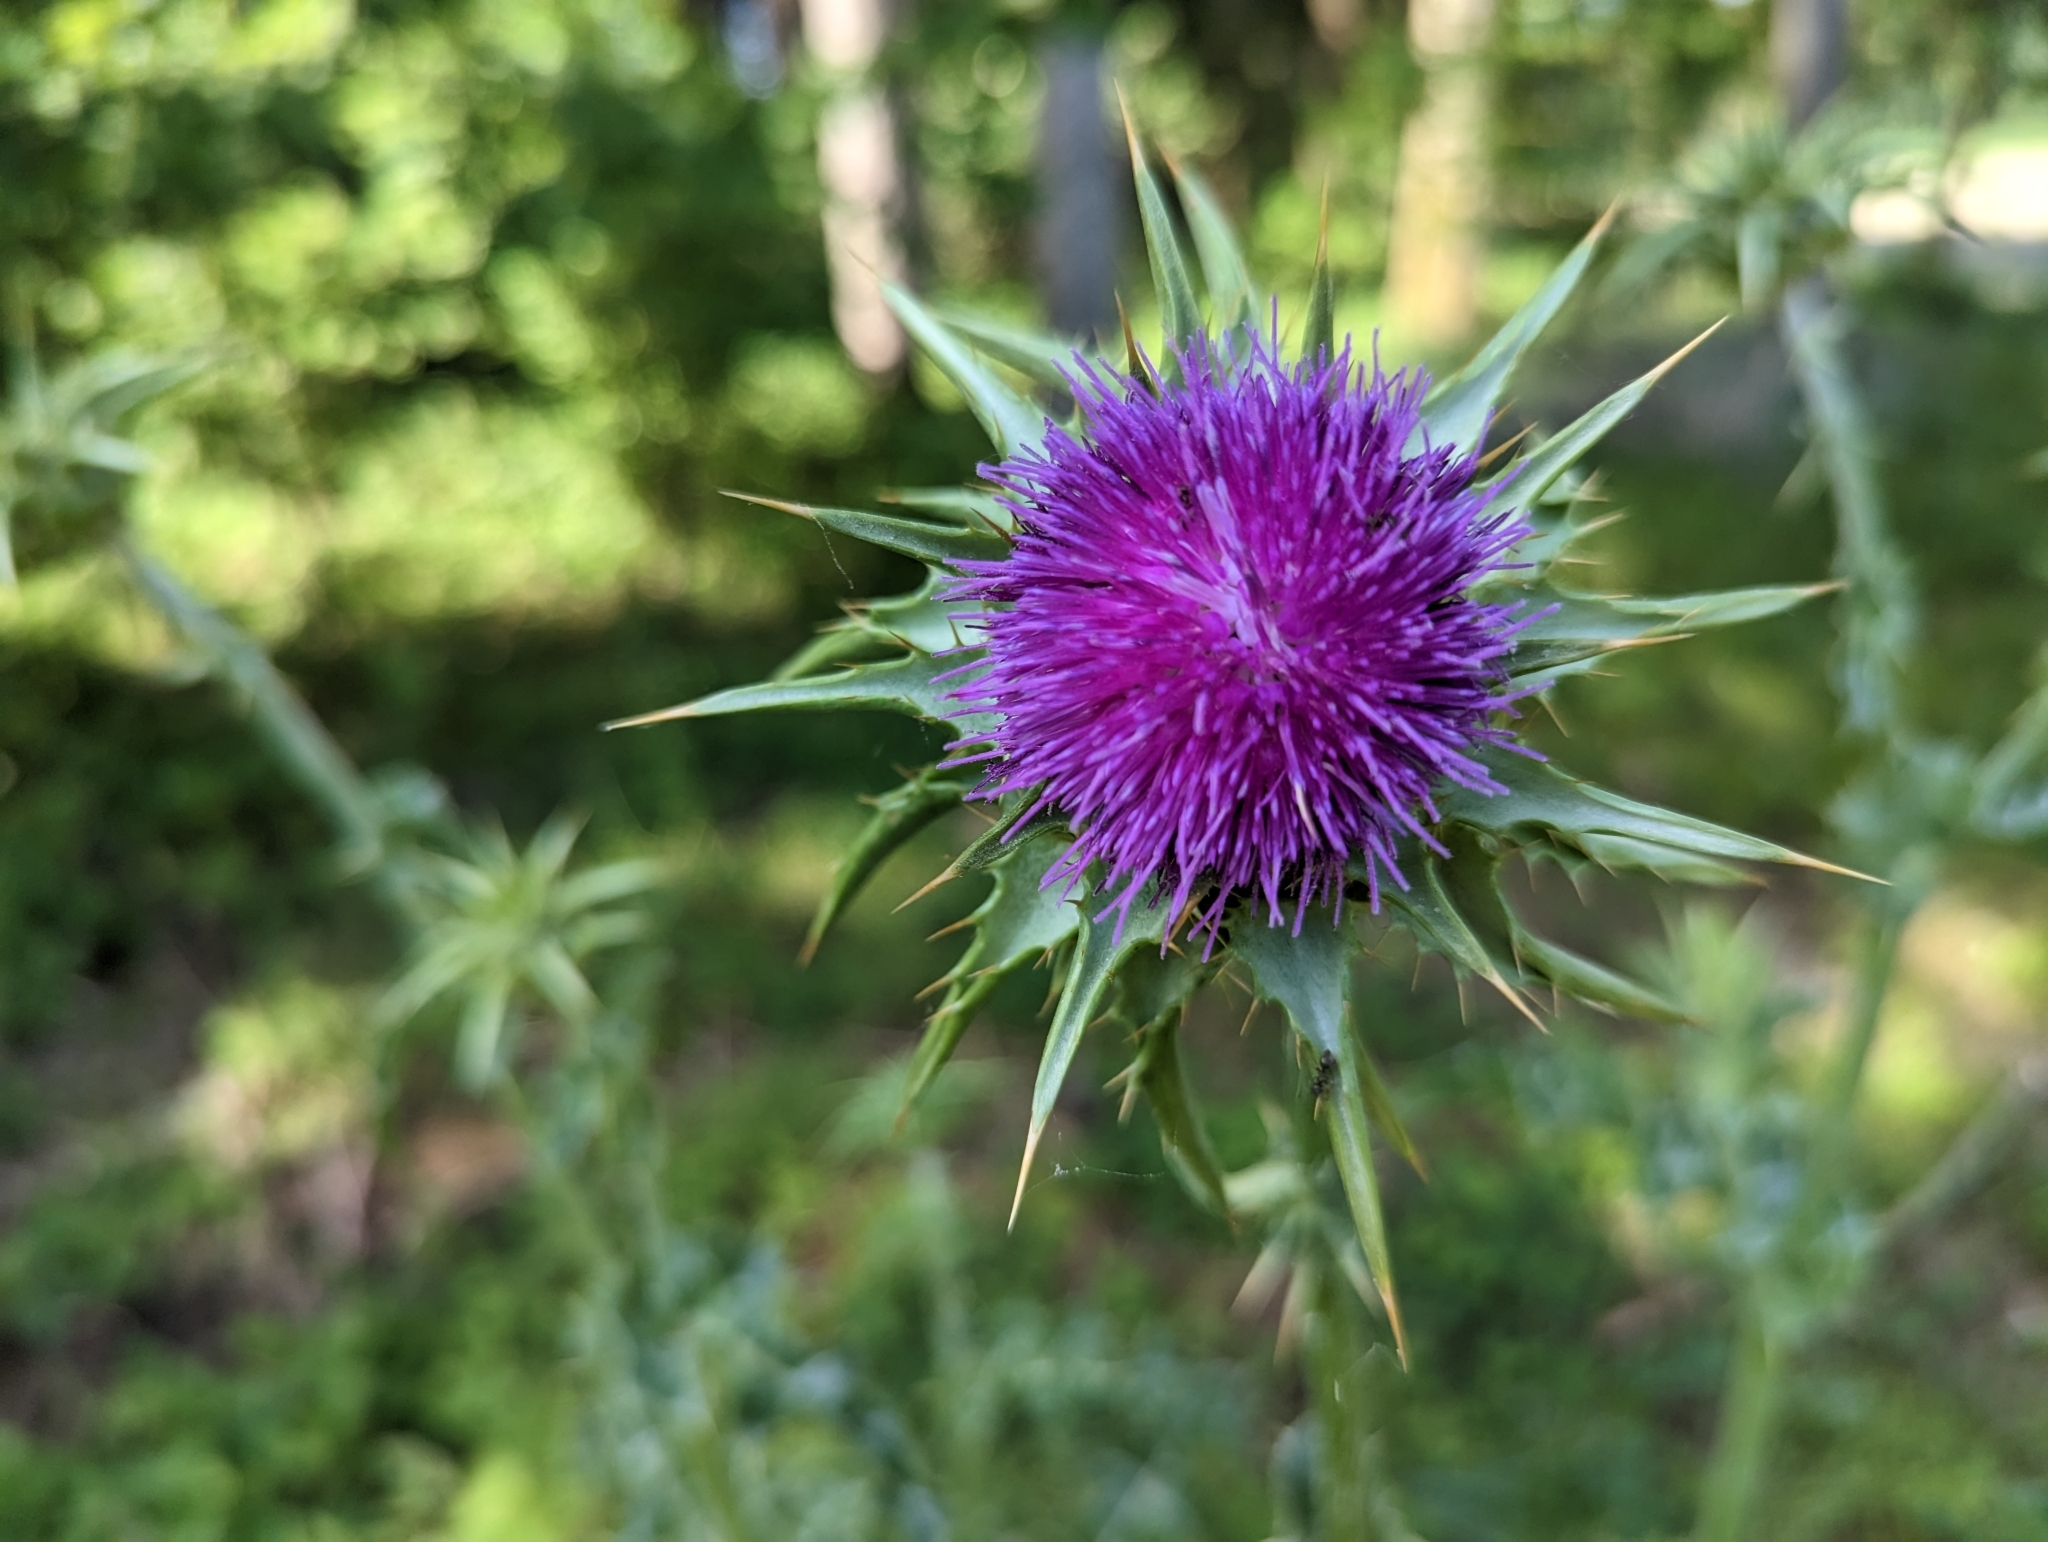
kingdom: Plantae
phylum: Tracheophyta
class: Magnoliopsida
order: Asterales
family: Asteraceae
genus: Silybum
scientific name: Silybum marianum
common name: Milk thistle
